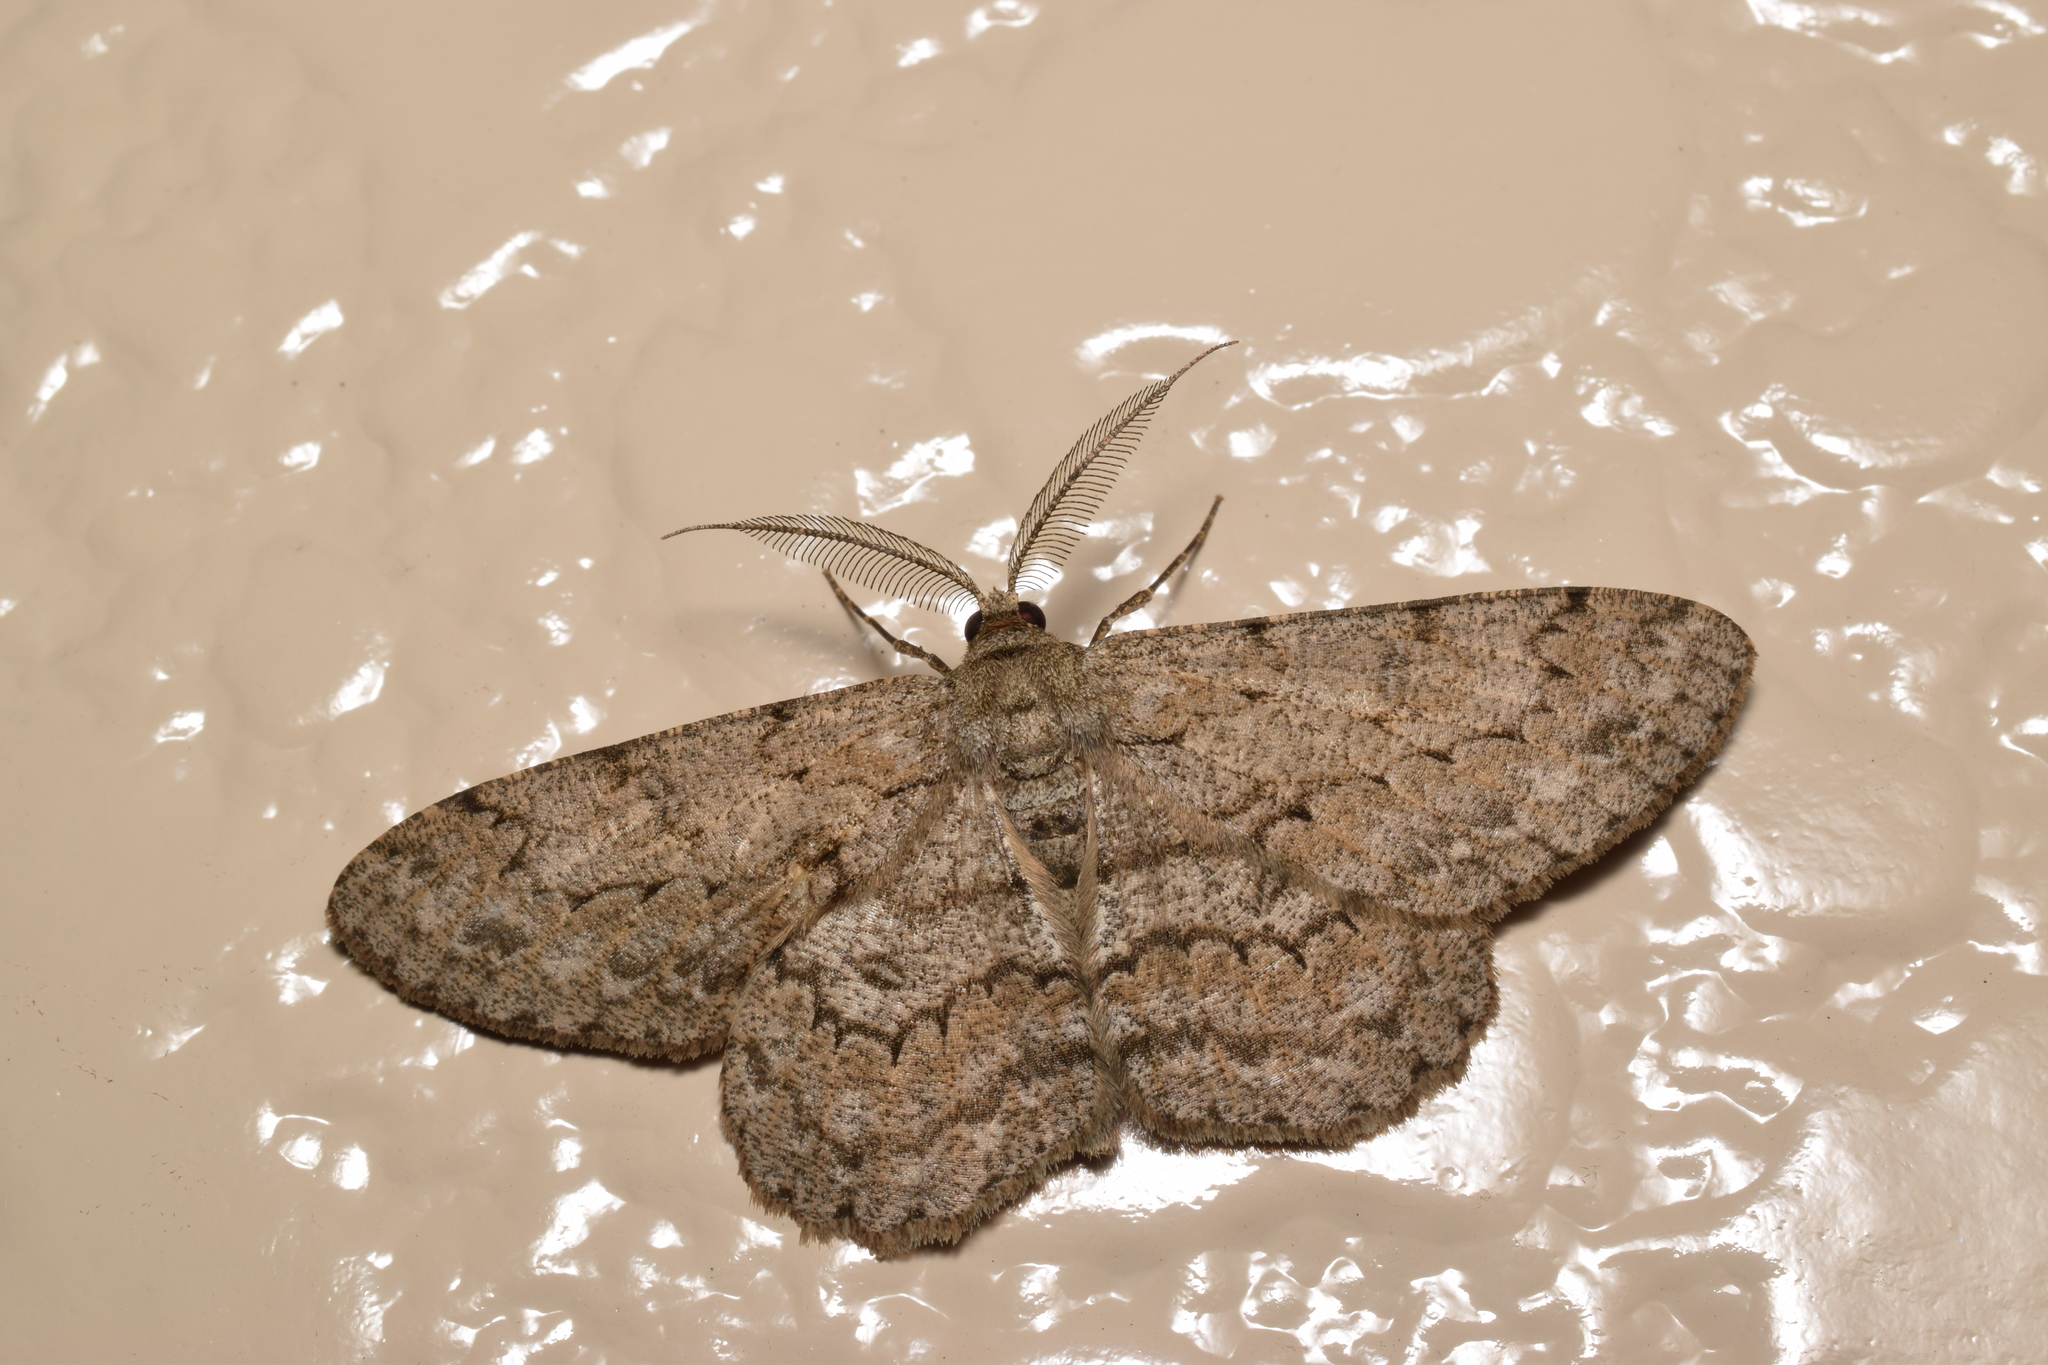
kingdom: Animalia
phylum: Arthropoda
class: Insecta
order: Lepidoptera
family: Geometridae
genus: Hypomecis
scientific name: Hypomecis punctinalis
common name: Pale oak beauty
